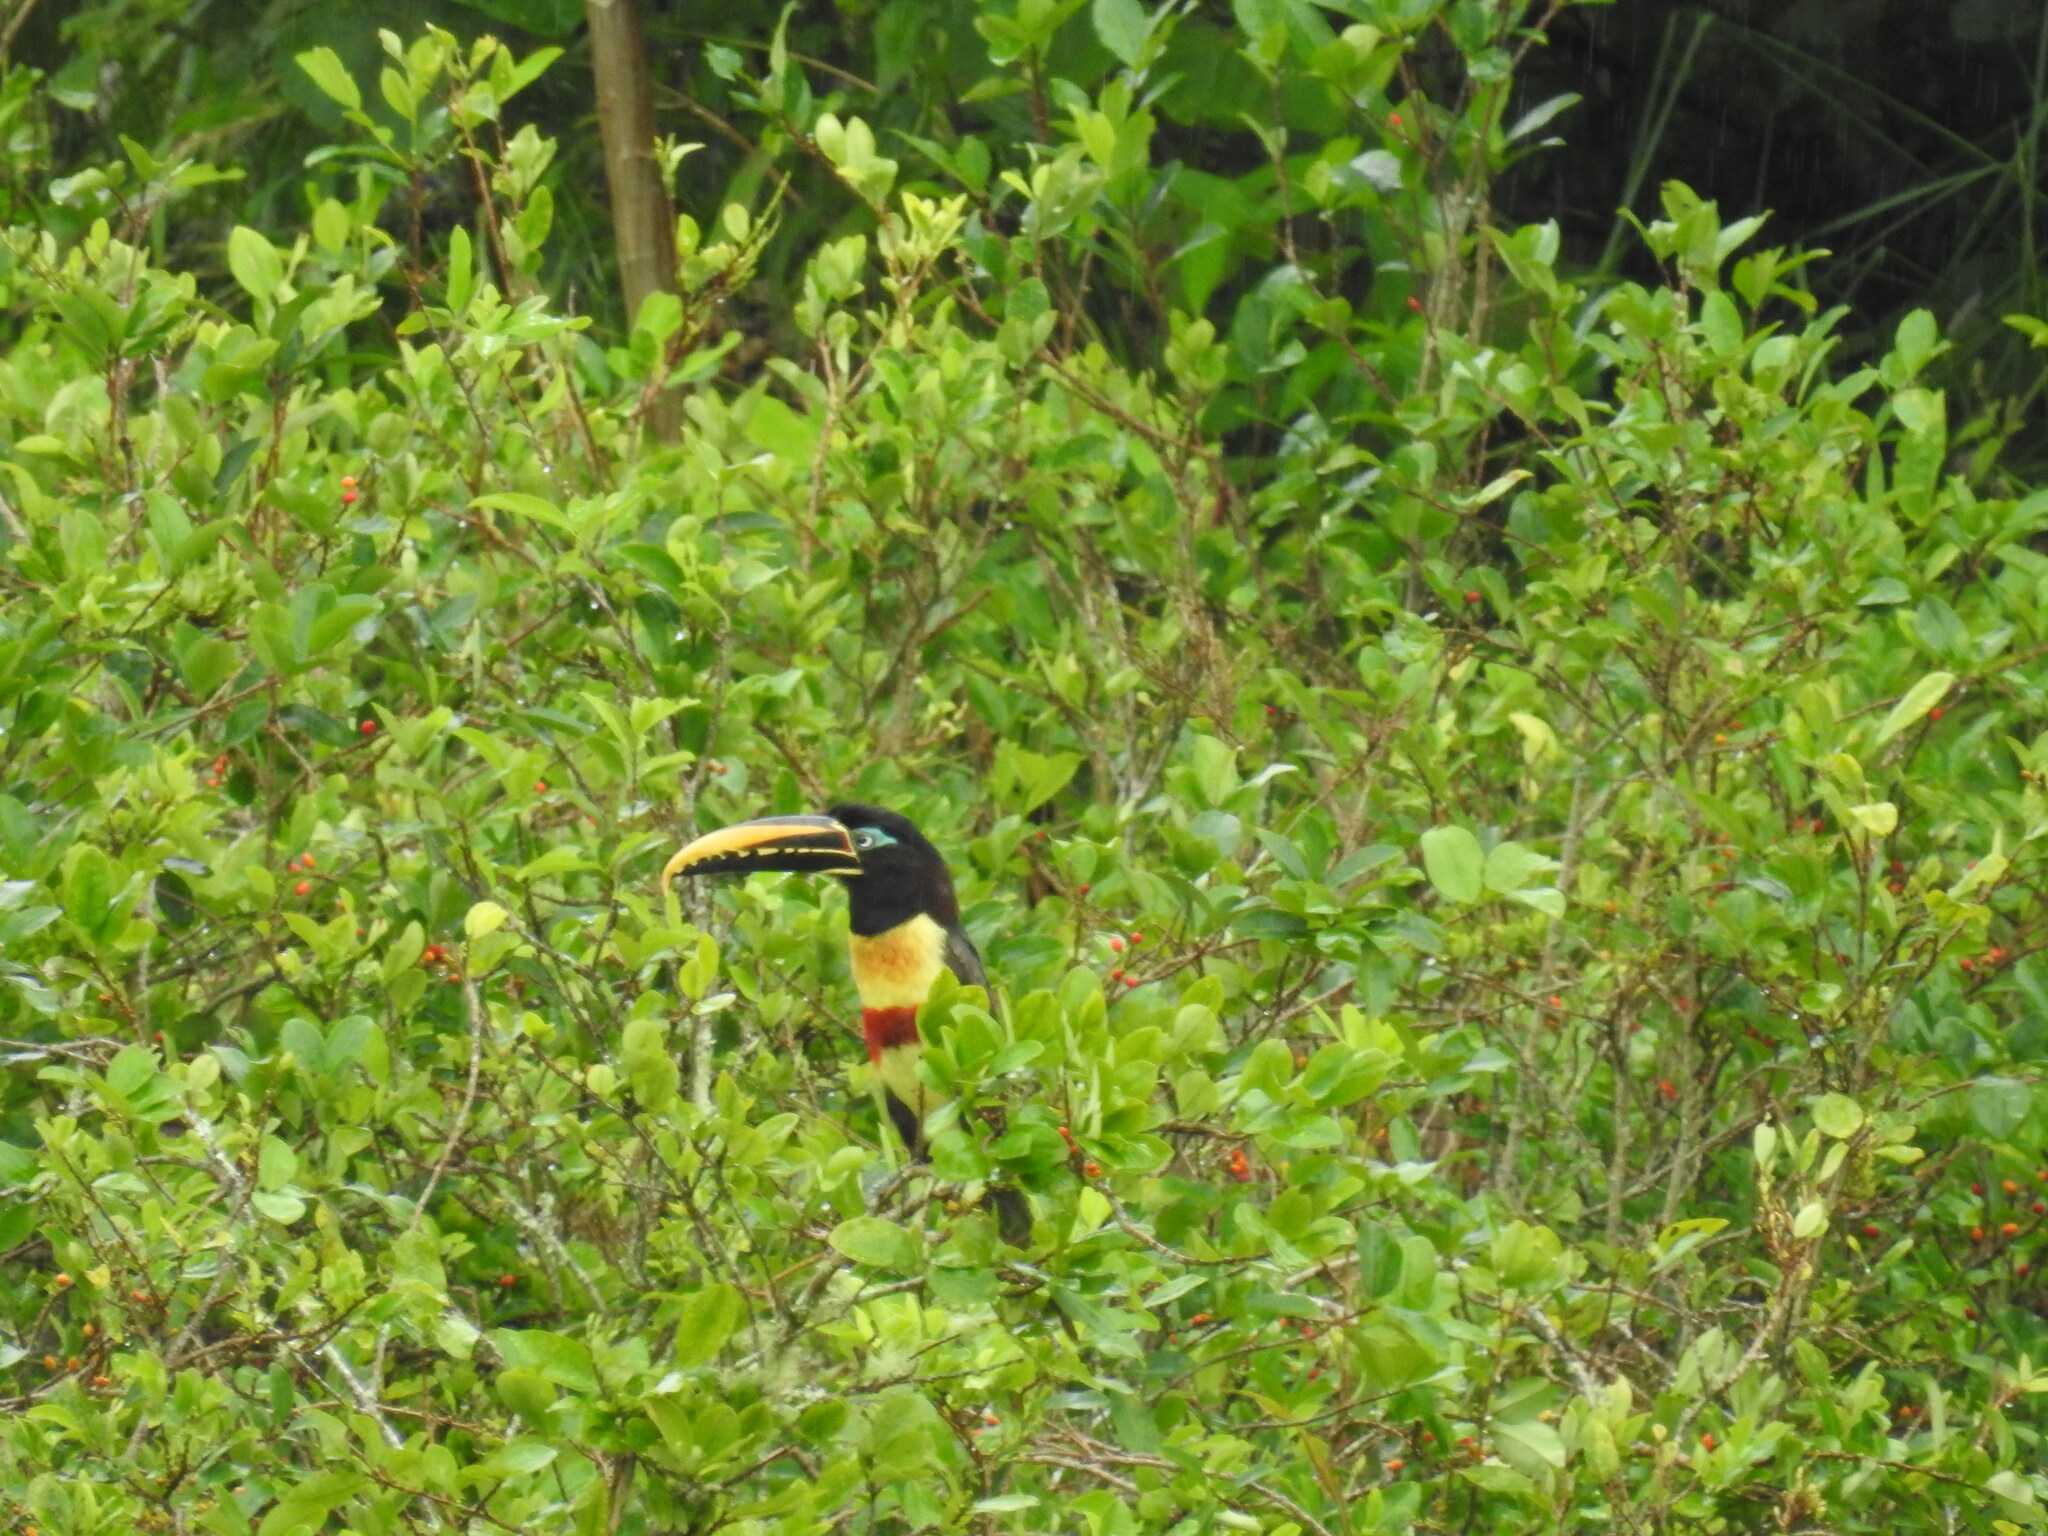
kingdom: Animalia
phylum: Chordata
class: Aves
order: Piciformes
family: Ramphastidae
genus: Pteroglossus
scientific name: Pteroglossus castanotis
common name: Chestnut-eared aracari
